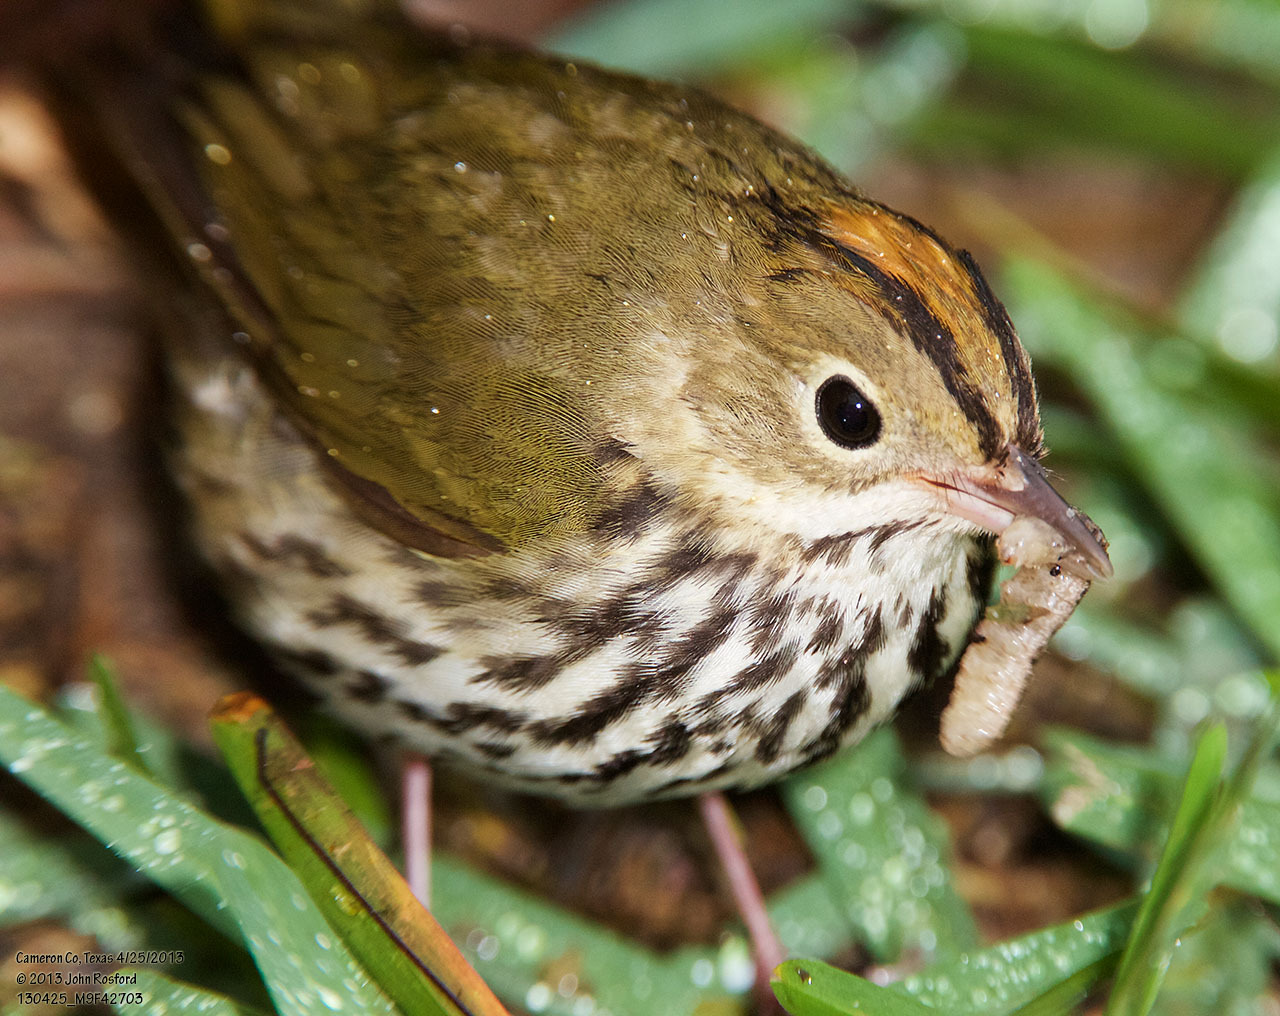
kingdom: Animalia
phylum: Chordata
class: Aves
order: Passeriformes
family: Parulidae
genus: Seiurus
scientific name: Seiurus aurocapilla
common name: Ovenbird
